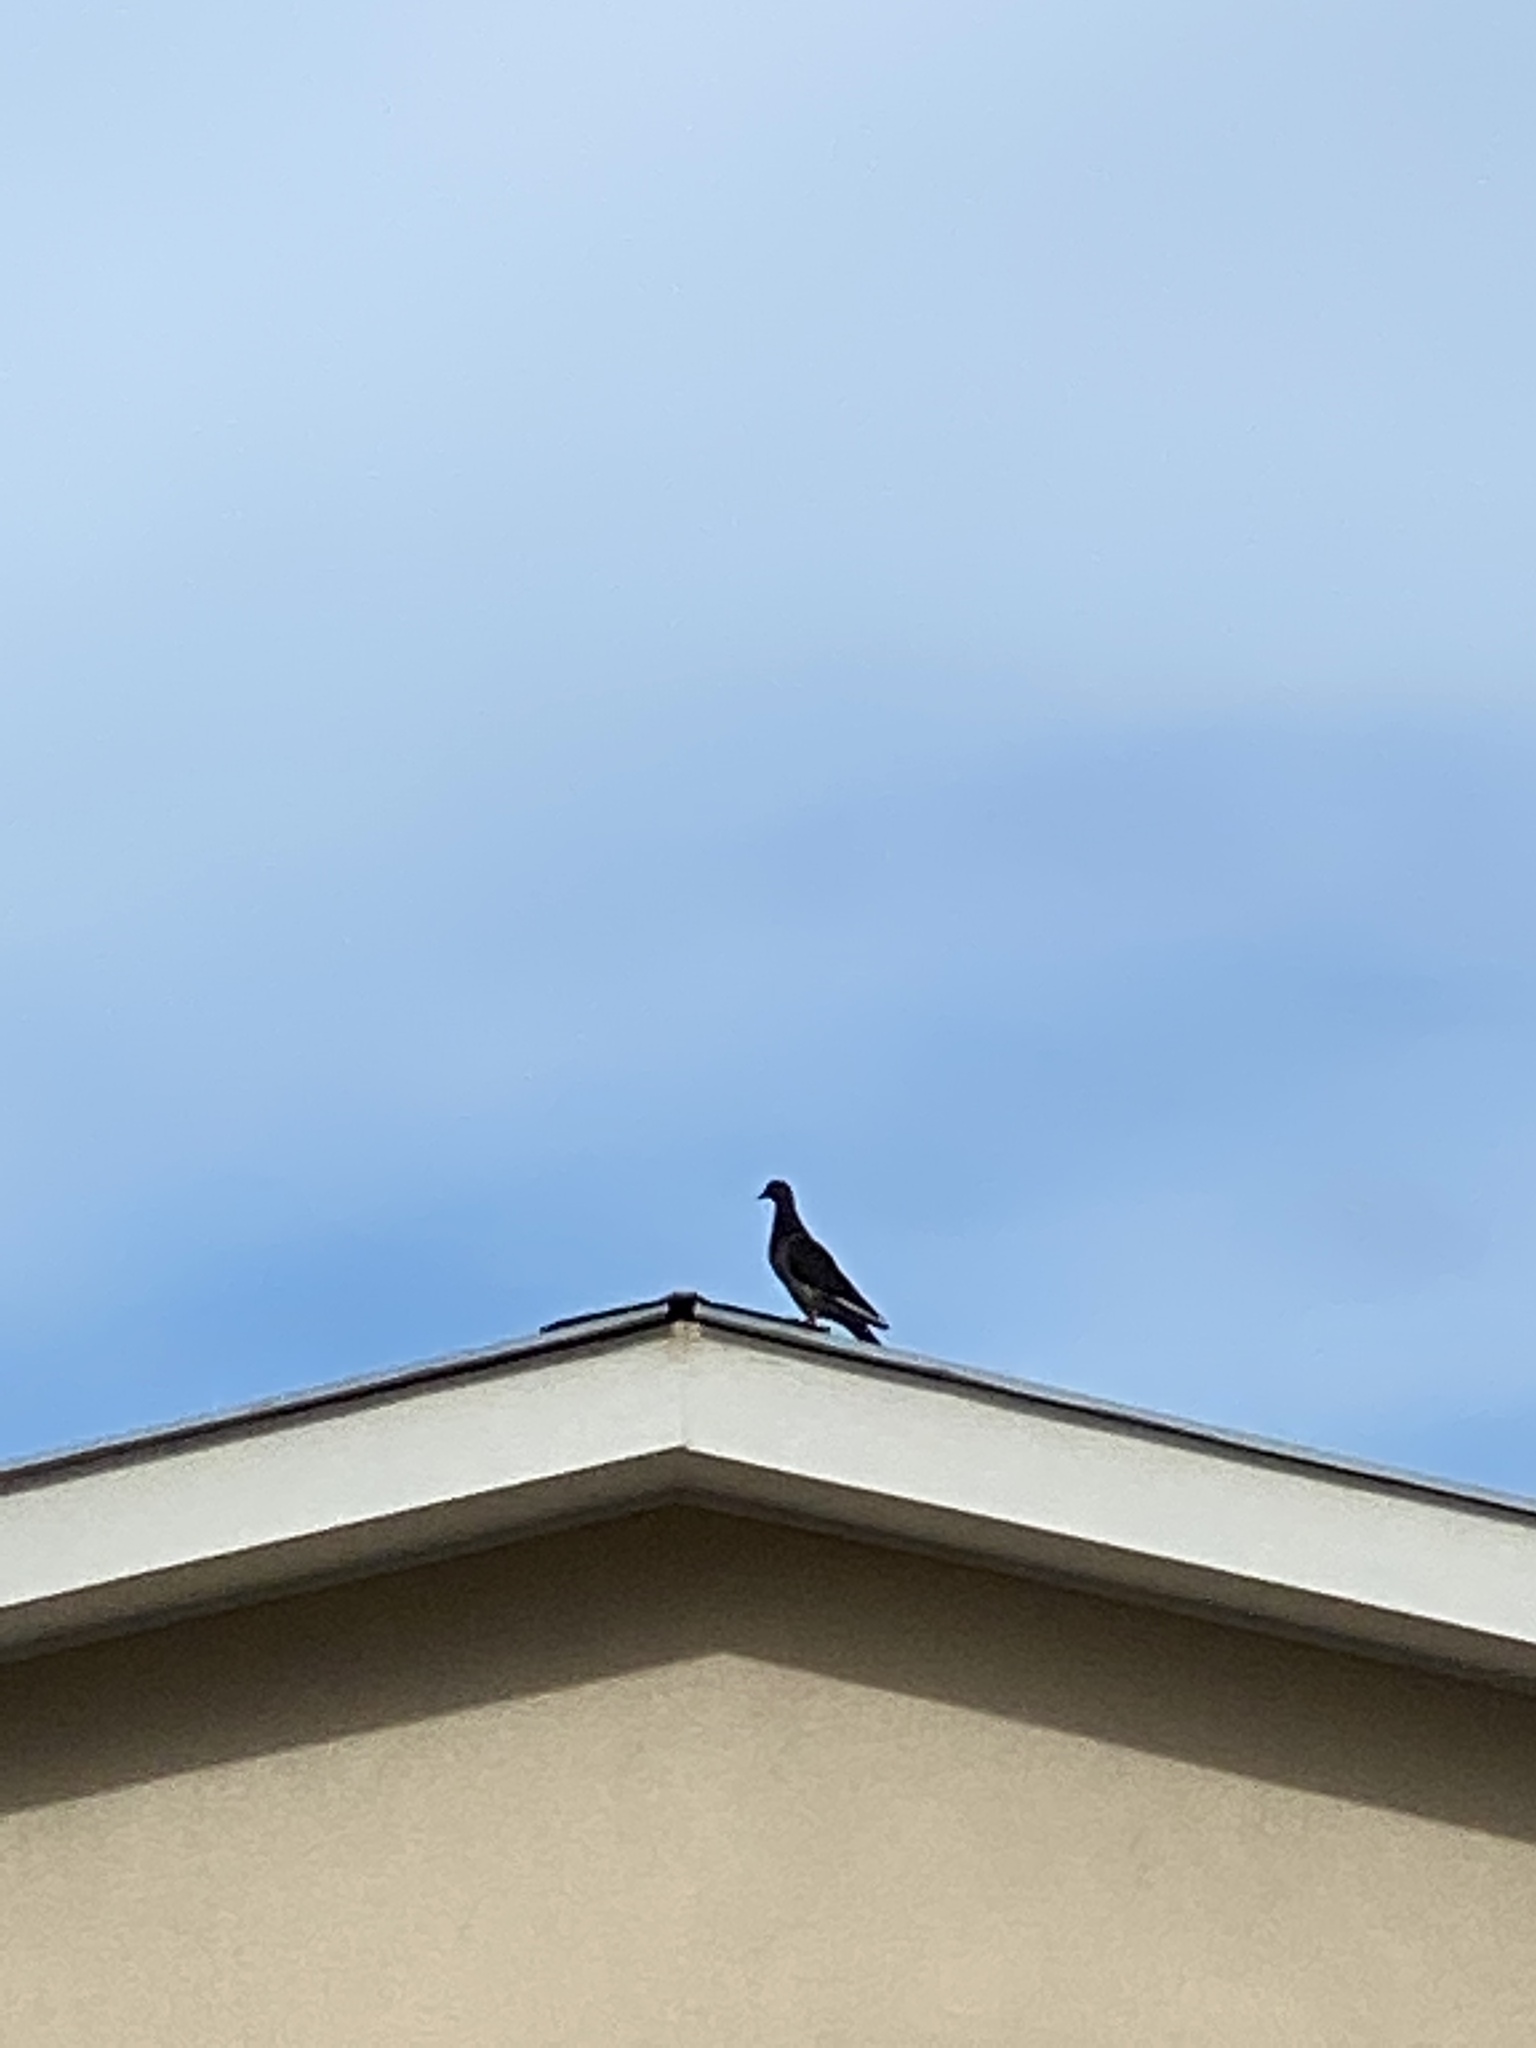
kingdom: Animalia
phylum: Chordata
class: Aves
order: Columbiformes
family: Columbidae
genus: Columba
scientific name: Columba livia
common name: Rock pigeon
